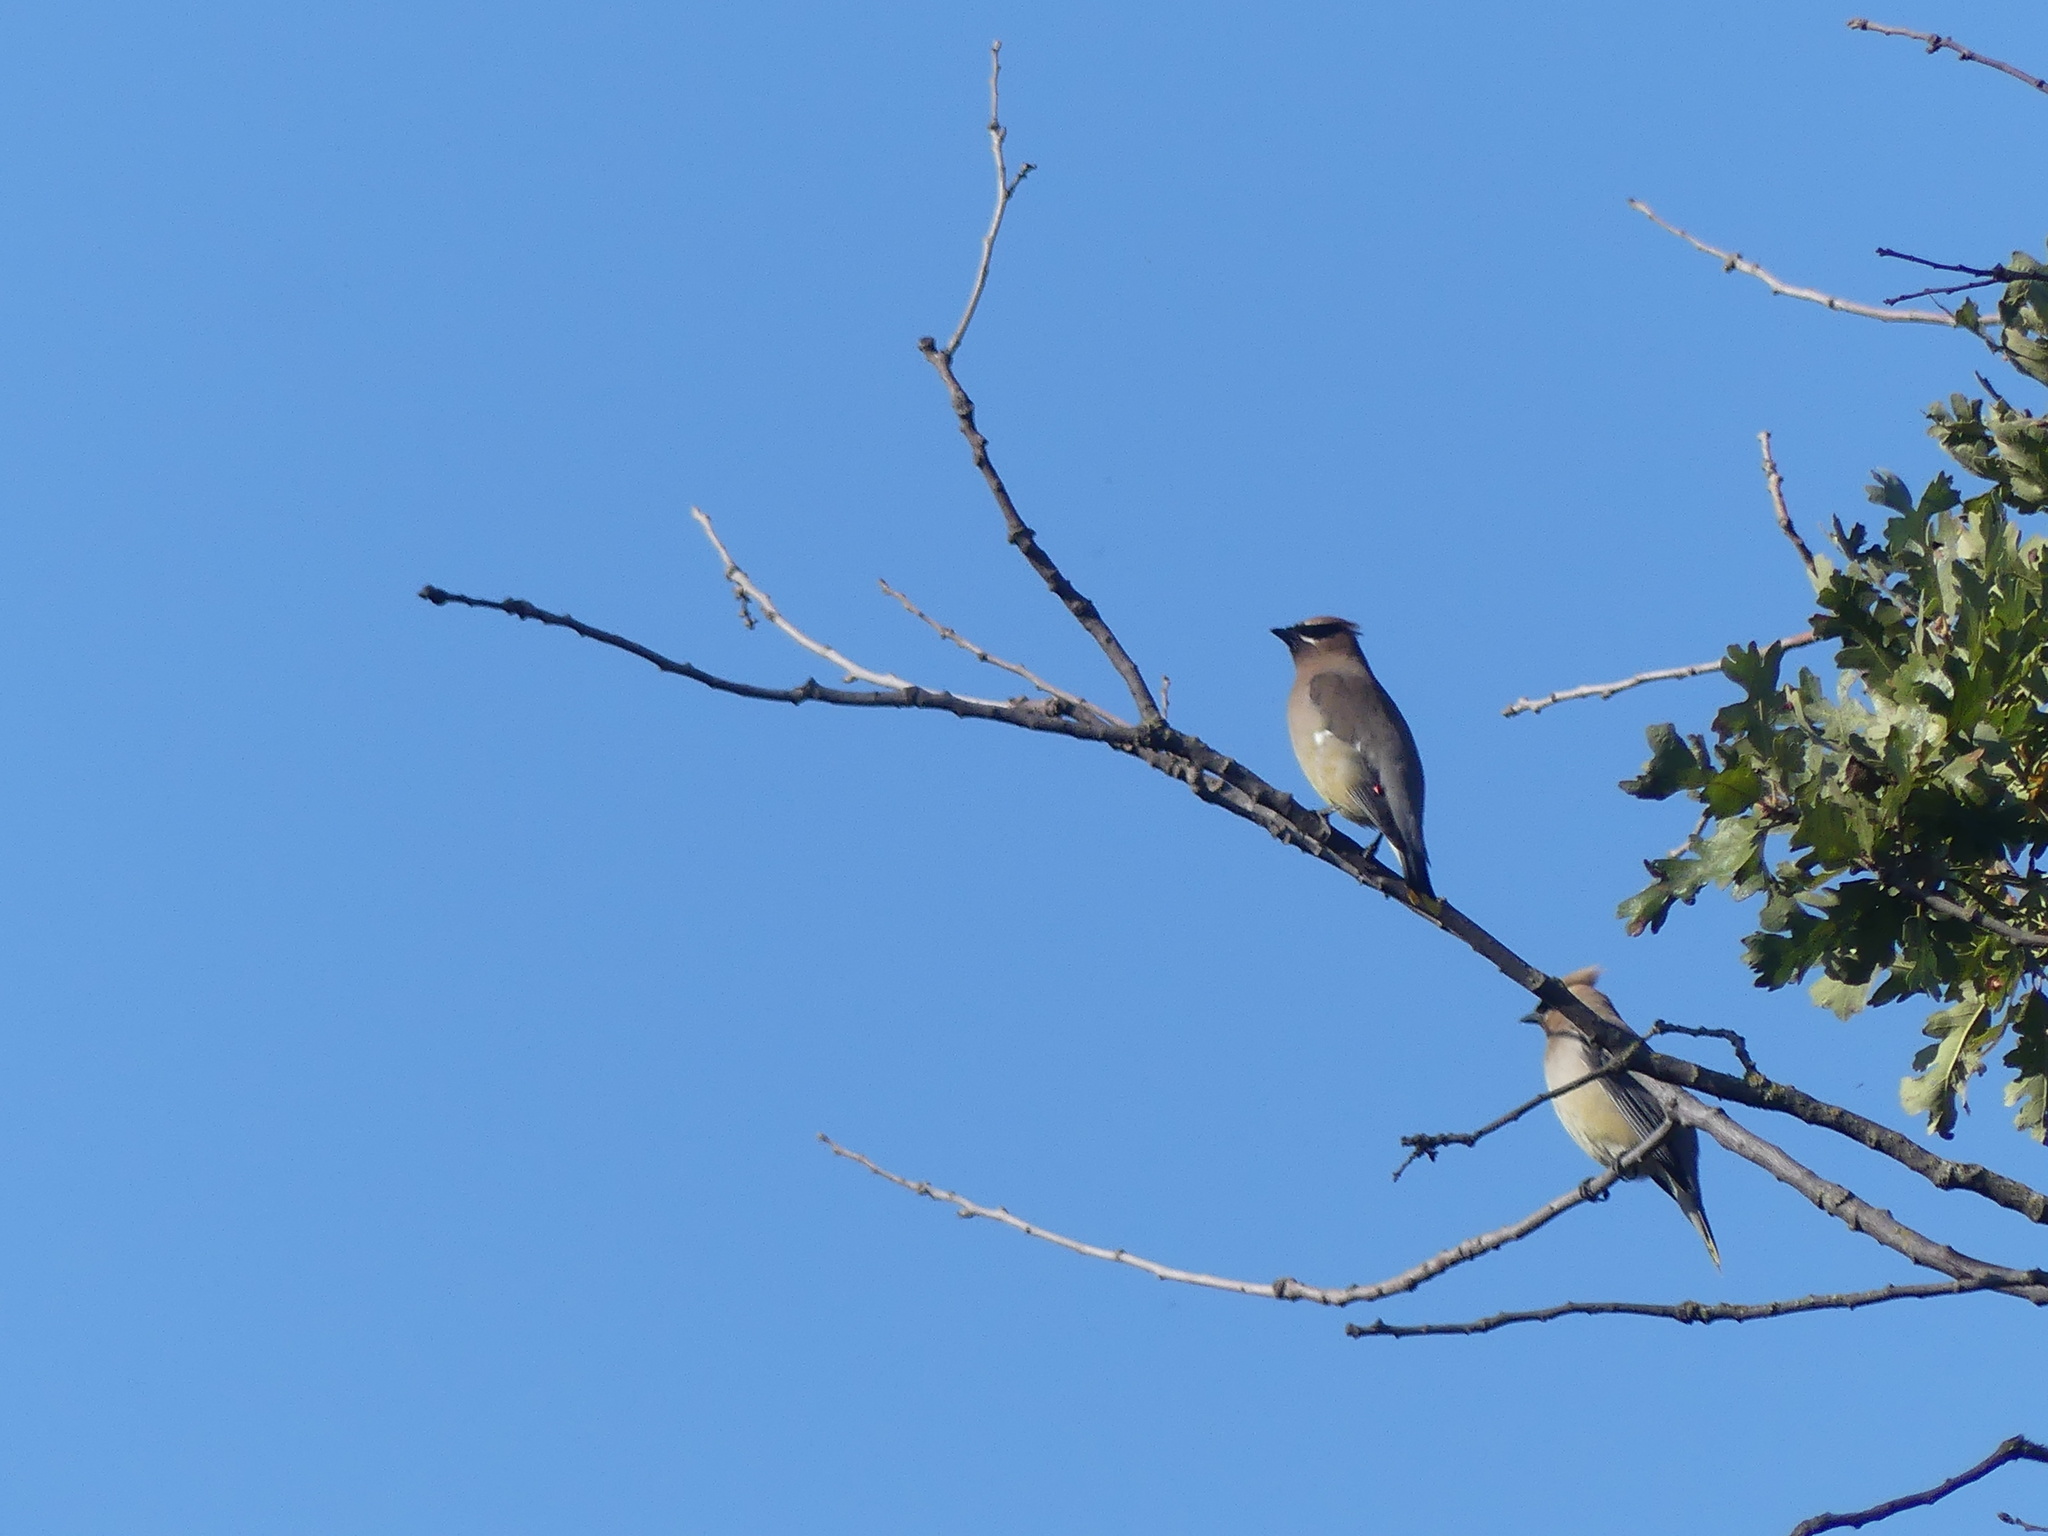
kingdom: Animalia
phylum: Chordata
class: Aves
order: Passeriformes
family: Bombycillidae
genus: Bombycilla
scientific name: Bombycilla cedrorum
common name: Cedar waxwing
